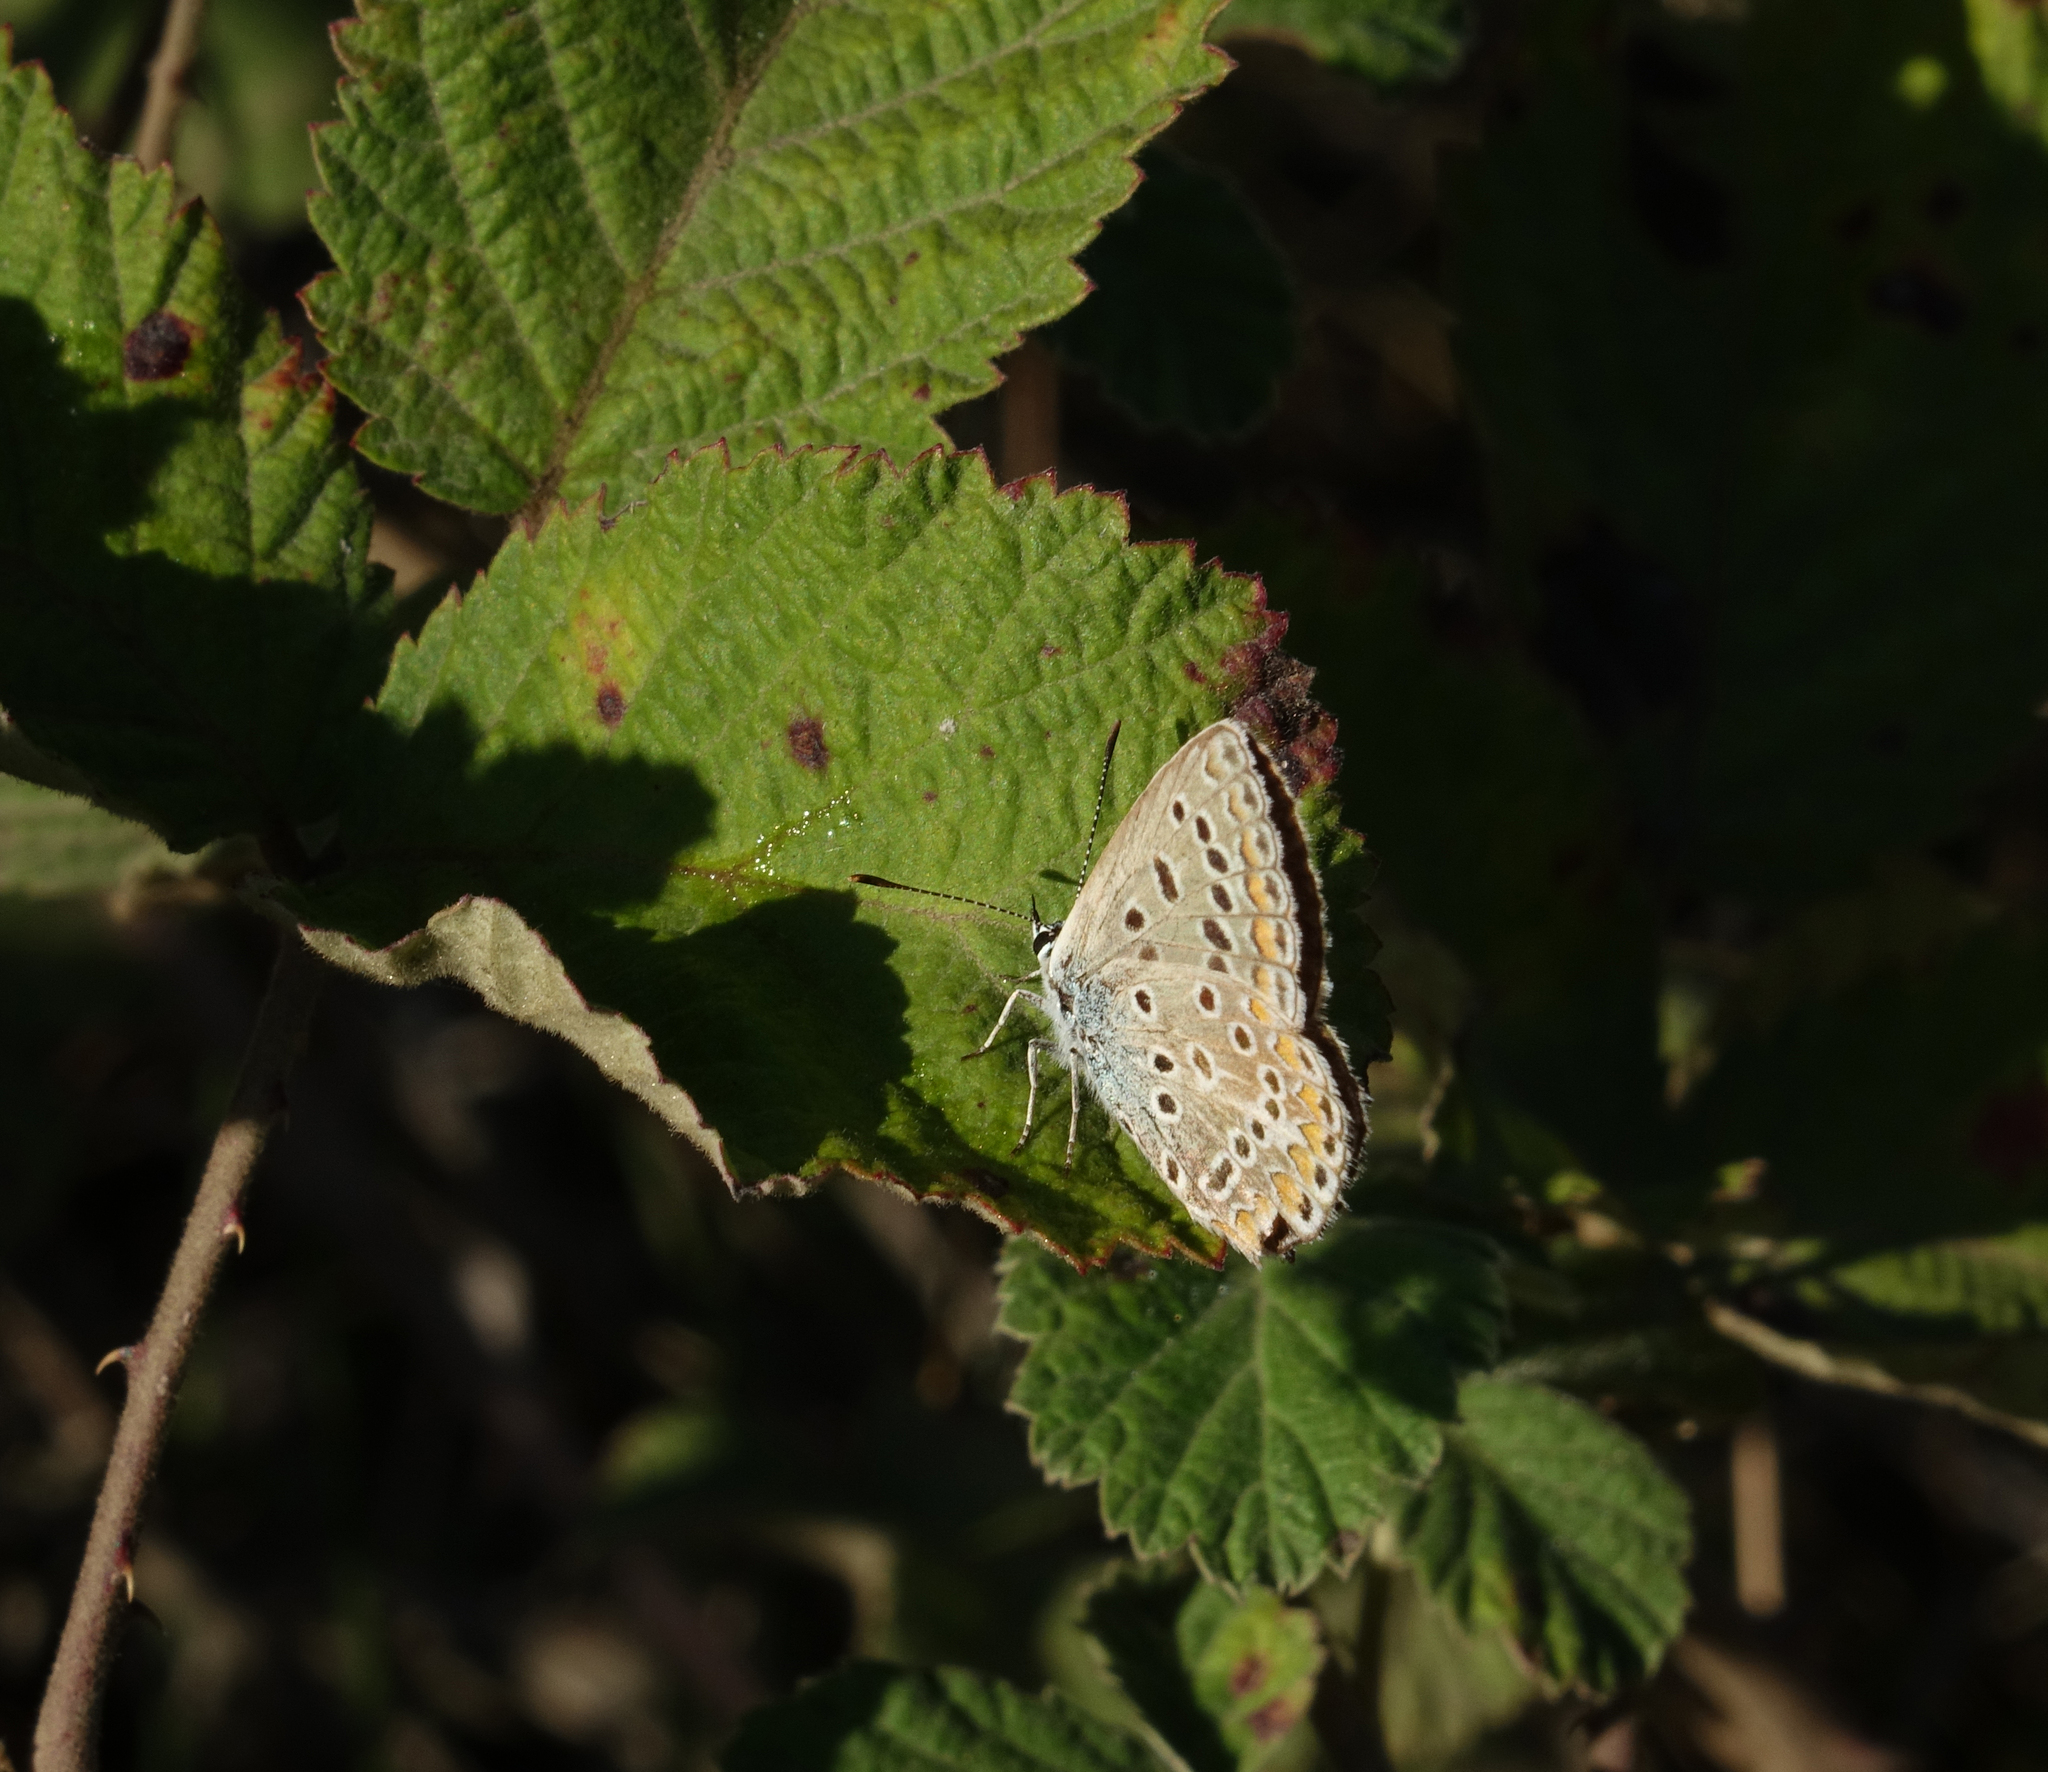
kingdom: Animalia
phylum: Arthropoda
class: Insecta
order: Lepidoptera
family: Lycaenidae
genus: Polyommatus
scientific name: Polyommatus icarus
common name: Common blue
